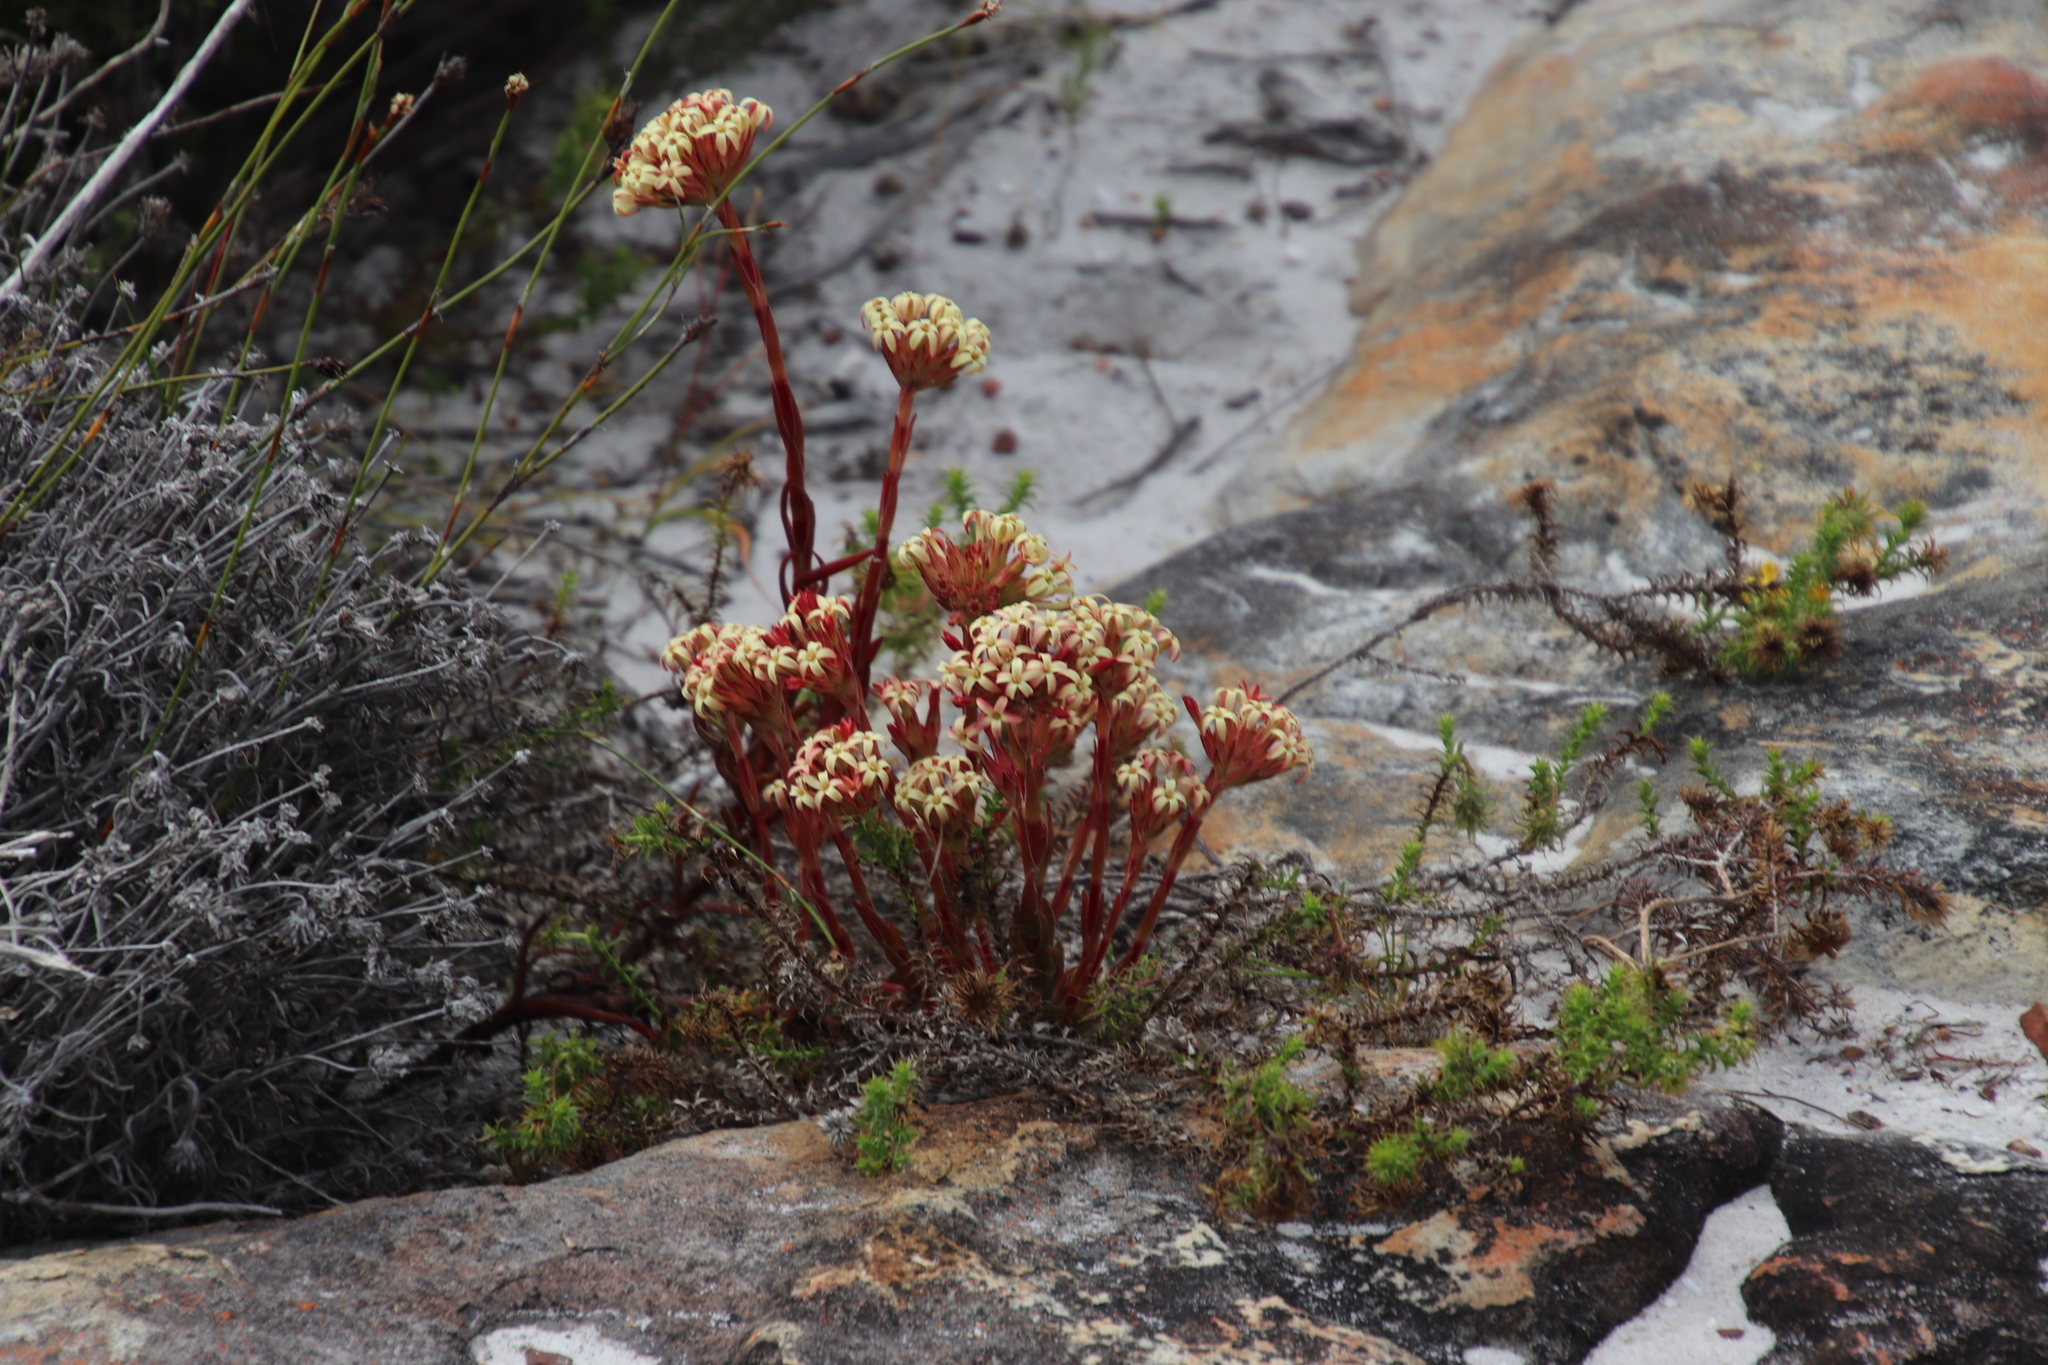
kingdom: Plantae
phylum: Tracheophyta
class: Magnoliopsida
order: Saxifragales
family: Crassulaceae
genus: Crassula
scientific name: Crassula fascicularis
